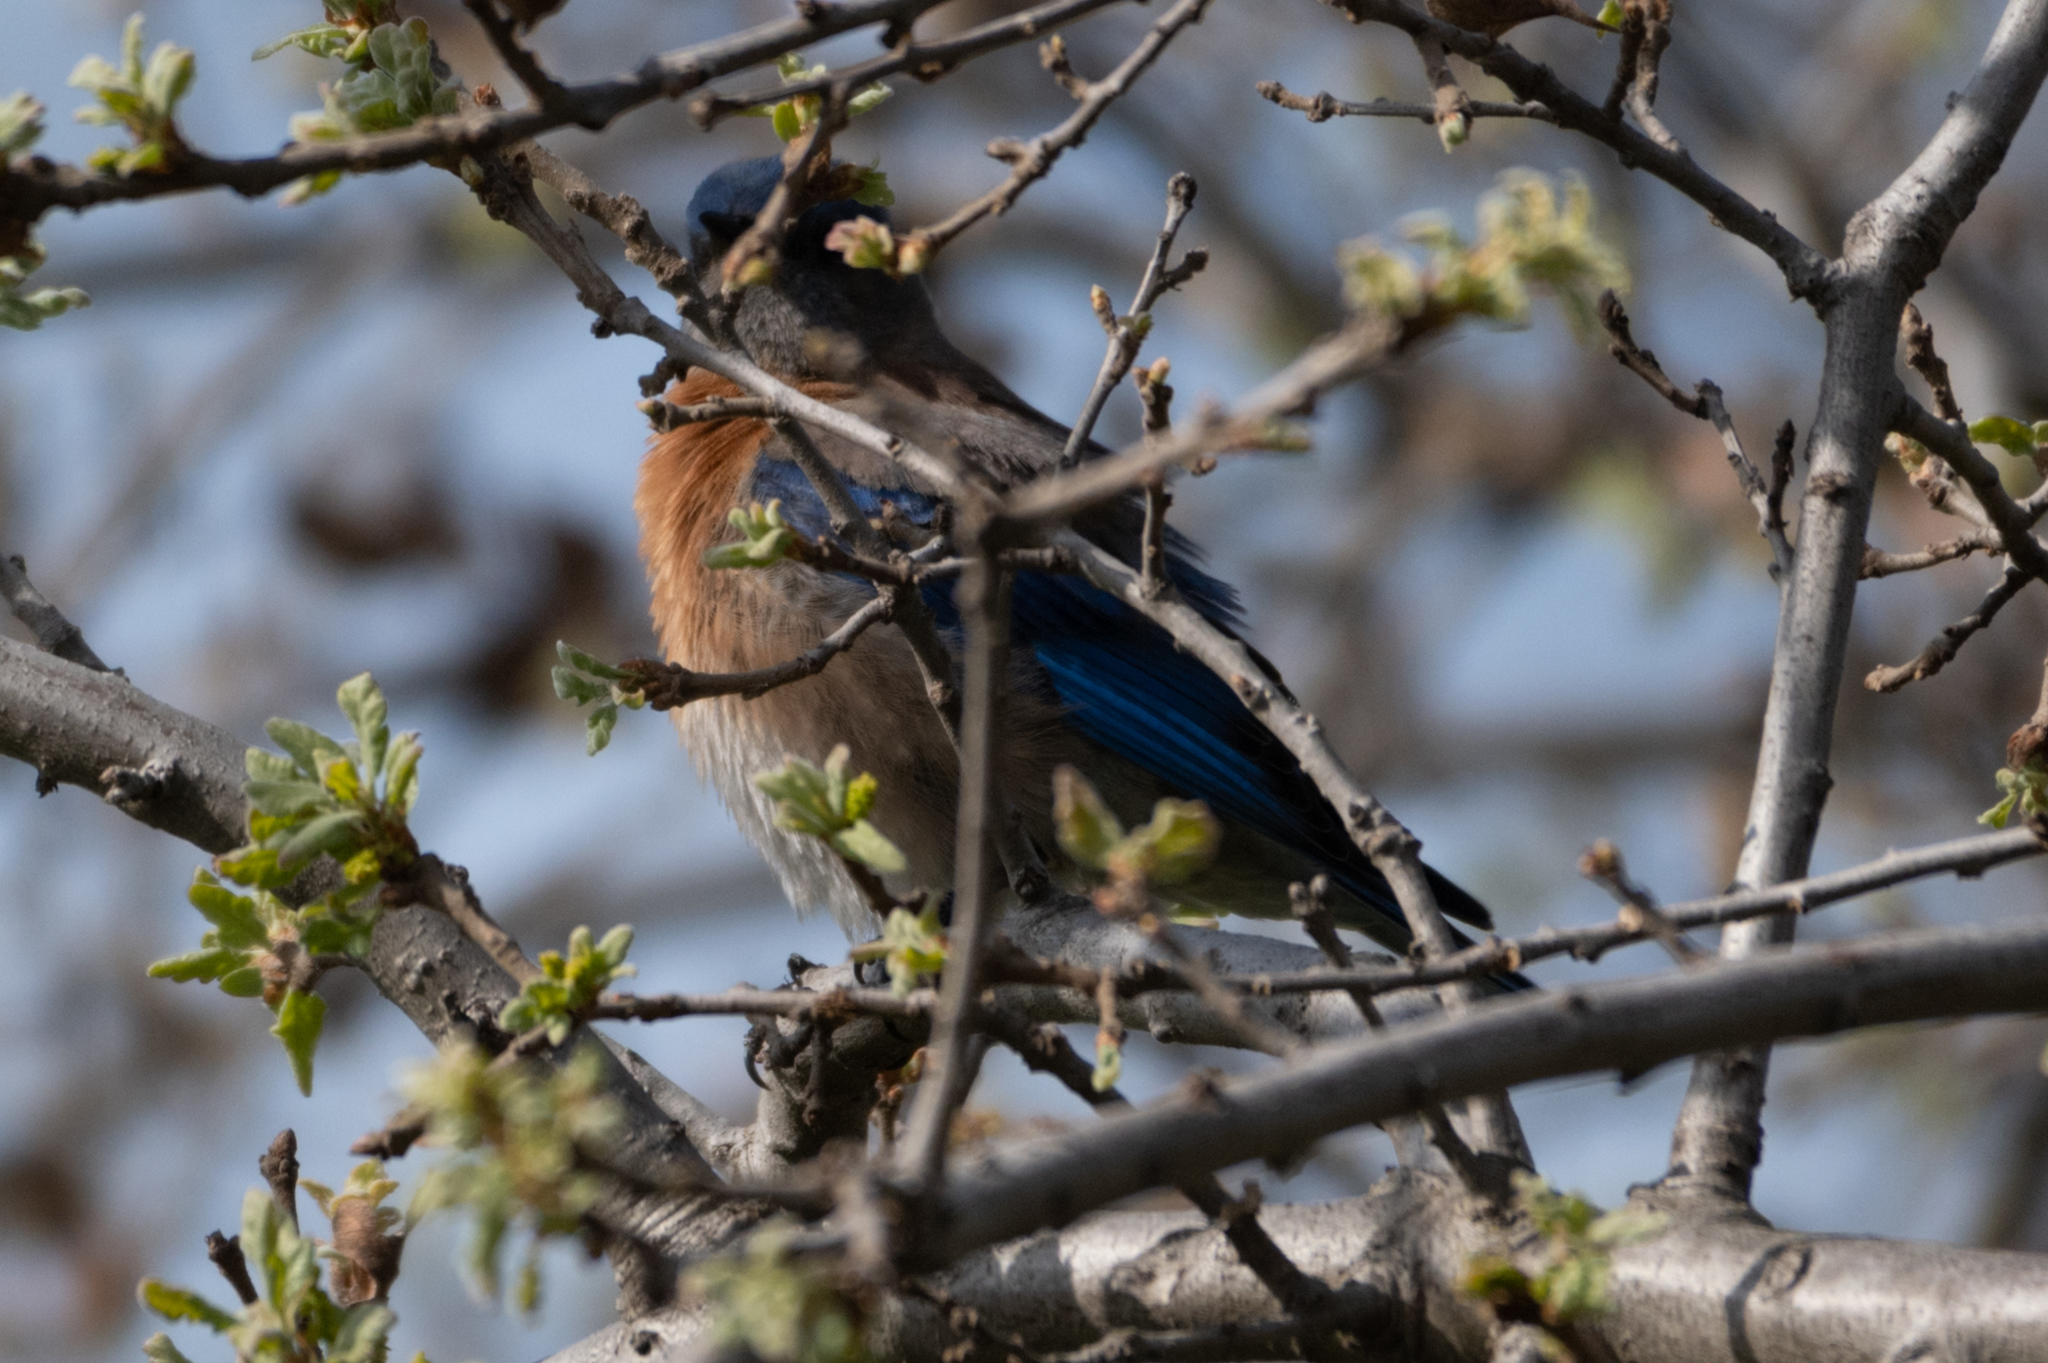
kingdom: Animalia
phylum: Chordata
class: Aves
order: Passeriformes
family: Turdidae
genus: Sialia
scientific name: Sialia mexicana
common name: Western bluebird
